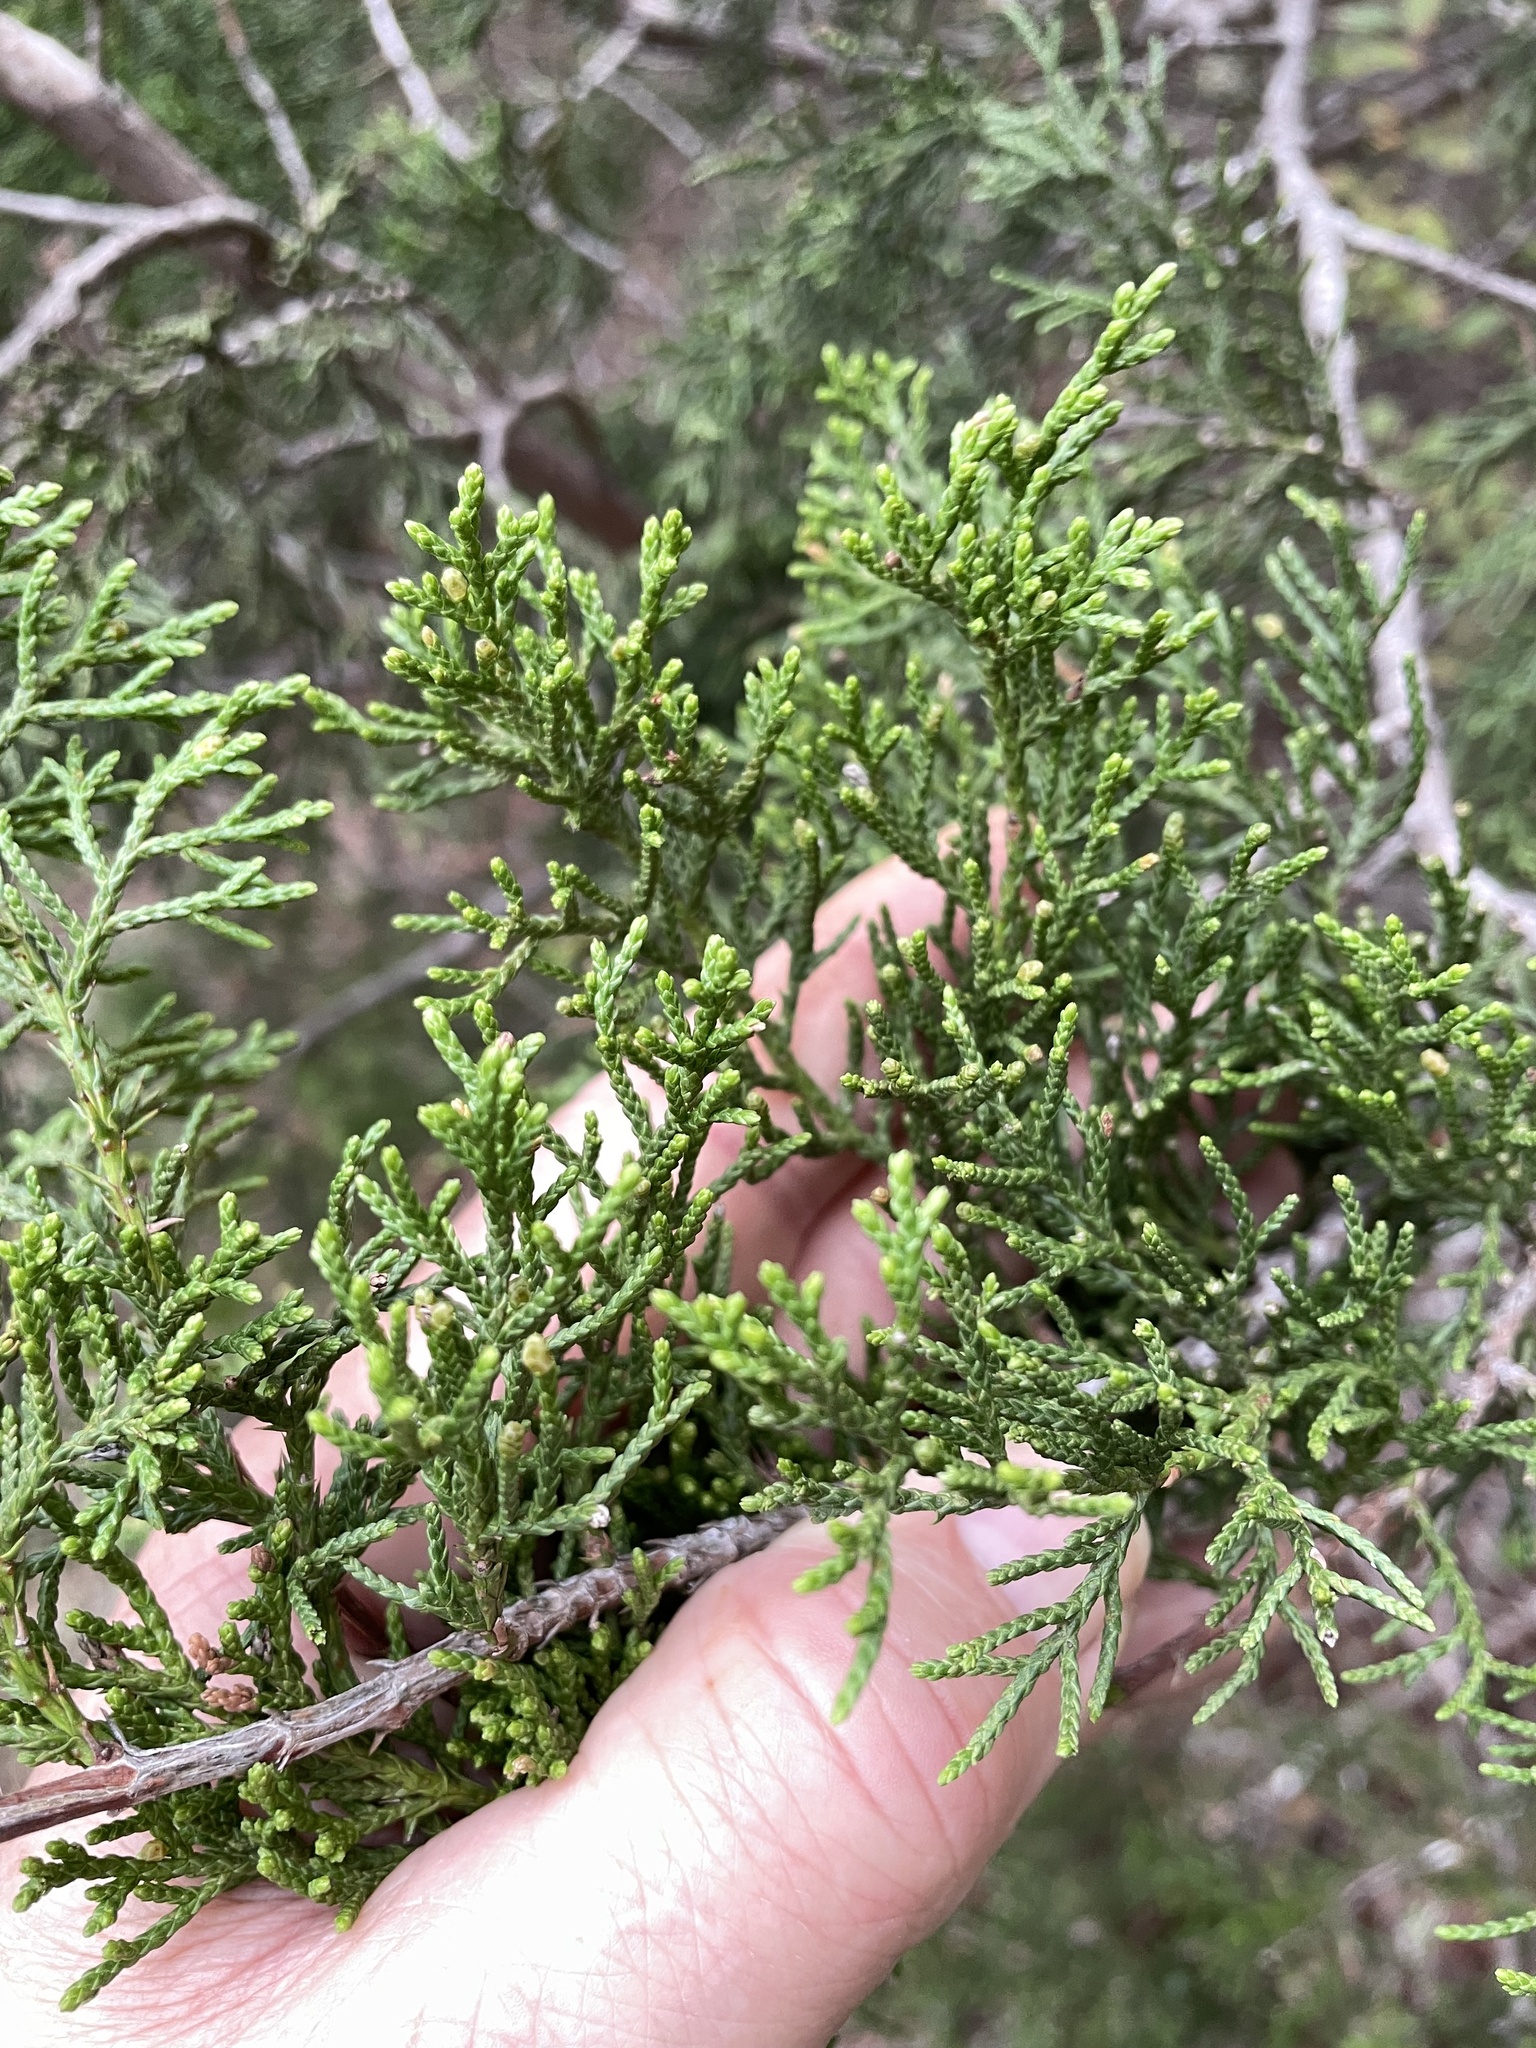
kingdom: Plantae
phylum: Tracheophyta
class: Pinopsida
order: Pinales
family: Cupressaceae
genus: Juniperus
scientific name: Juniperus ashei
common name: Mexican juniper
